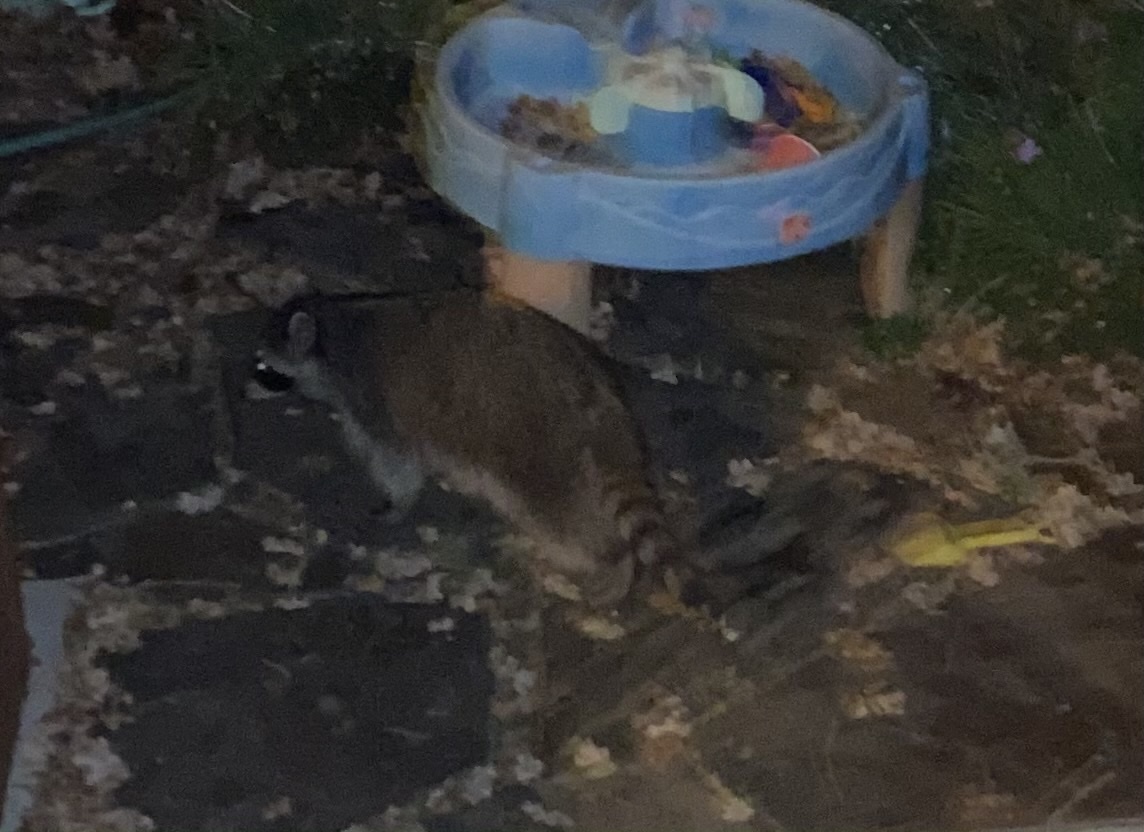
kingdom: Animalia
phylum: Chordata
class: Mammalia
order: Carnivora
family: Procyonidae
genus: Procyon
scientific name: Procyon lotor
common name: Raccoon
